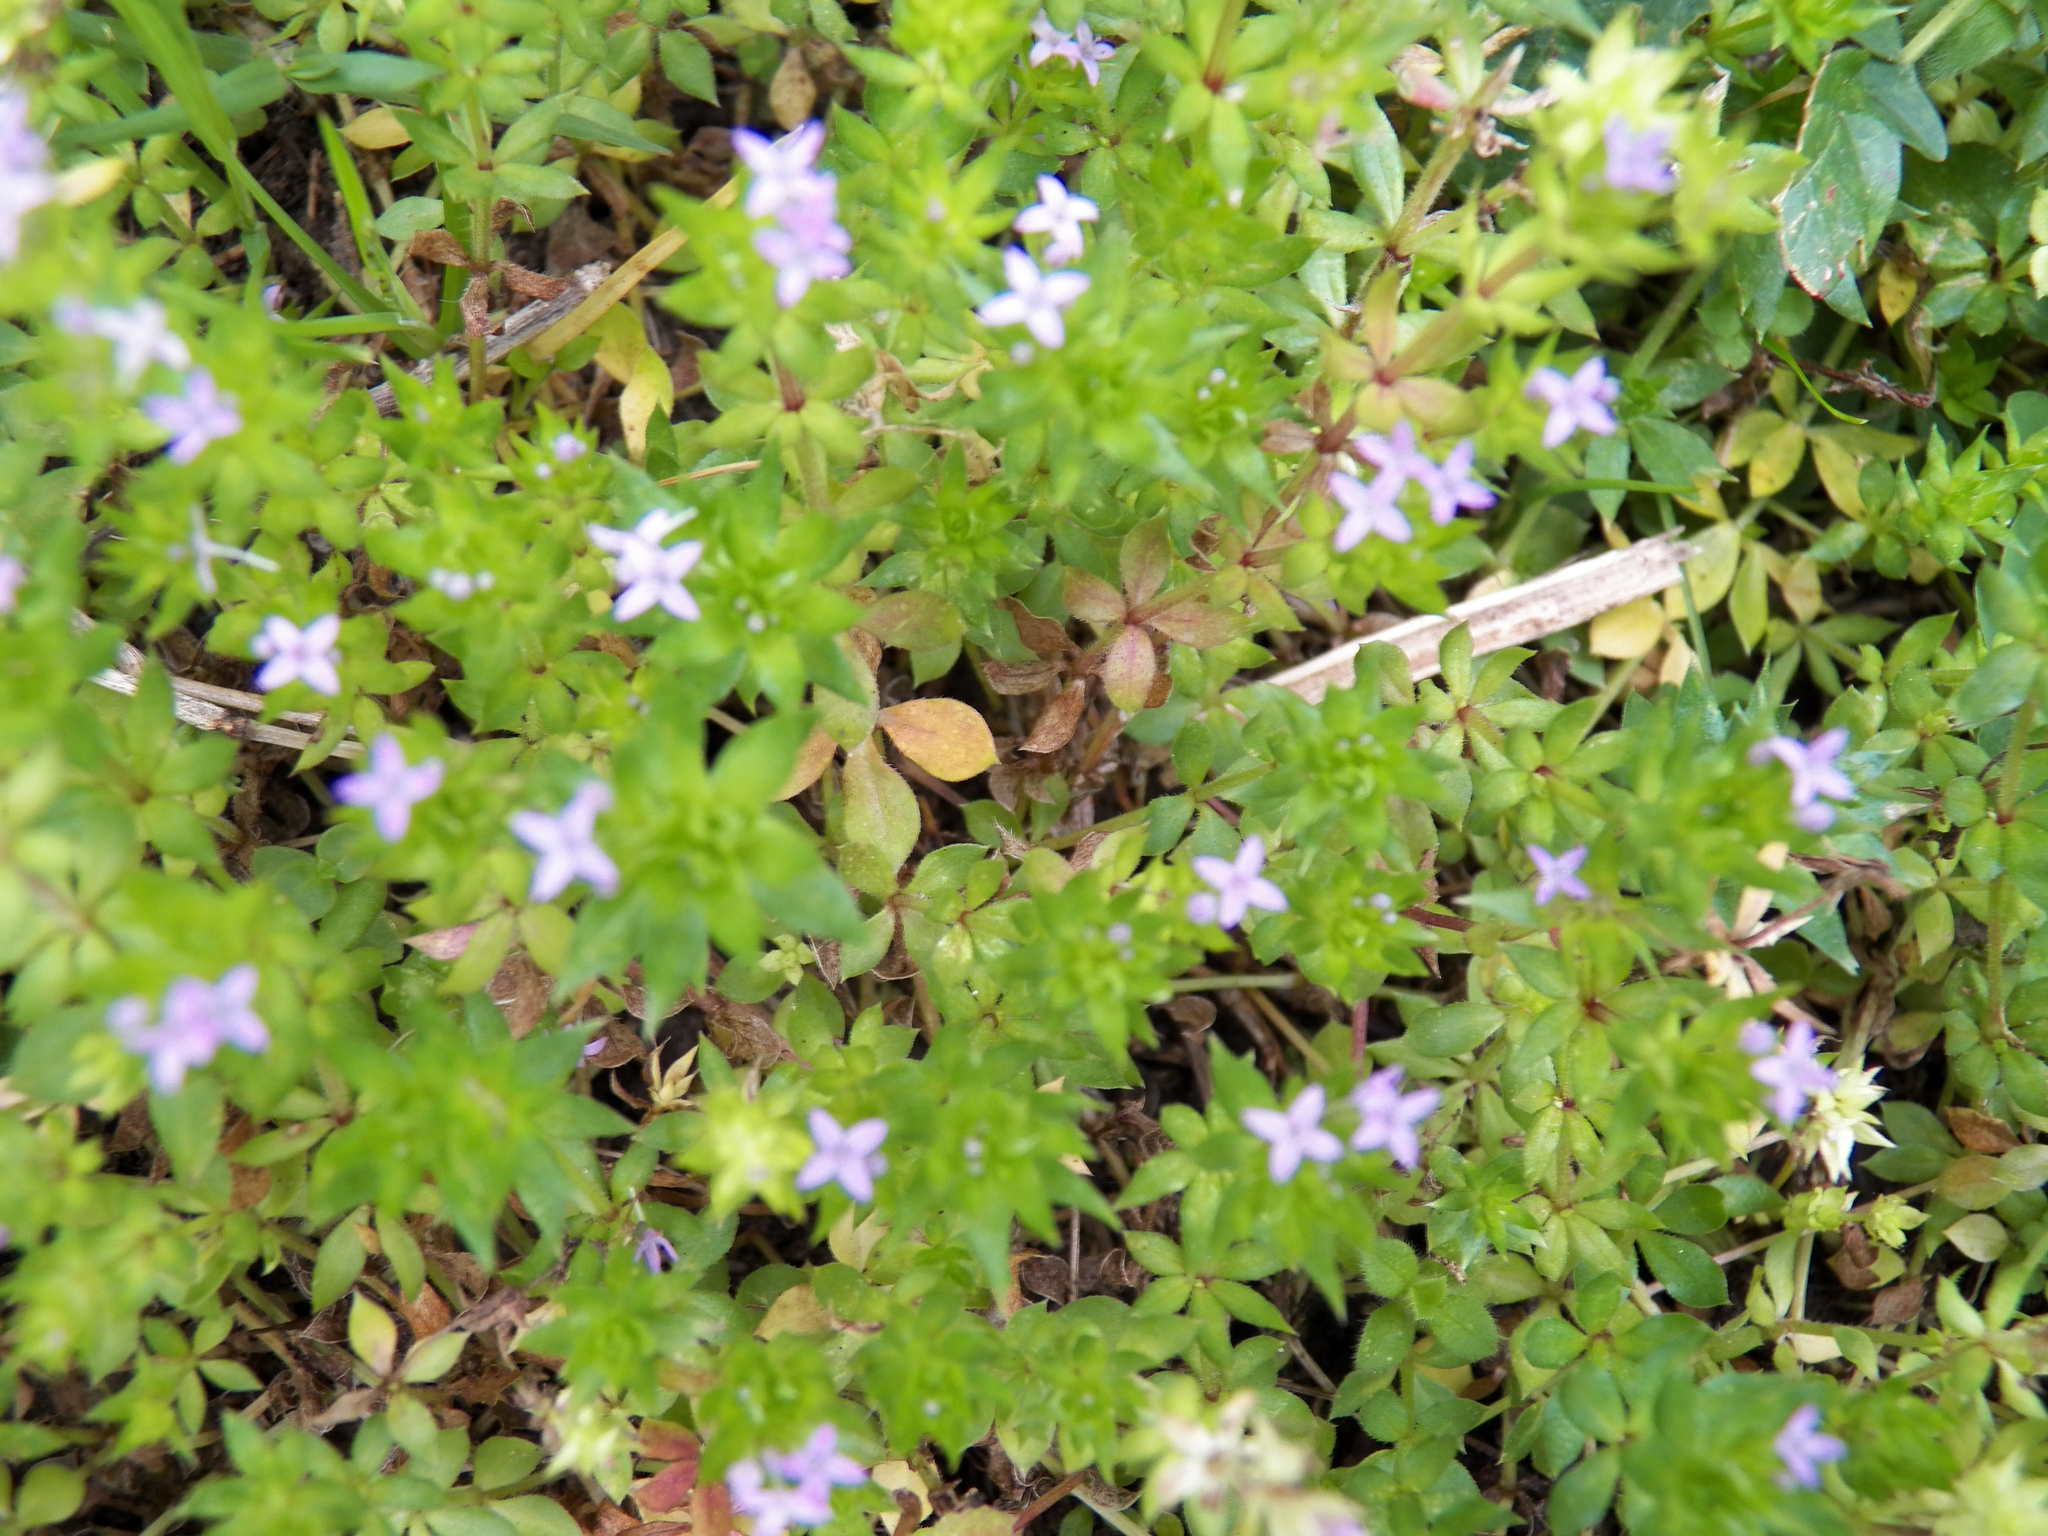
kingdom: Plantae
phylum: Tracheophyta
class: Magnoliopsida
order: Gentianales
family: Rubiaceae
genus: Sherardia
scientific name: Sherardia arvensis
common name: Field madder
